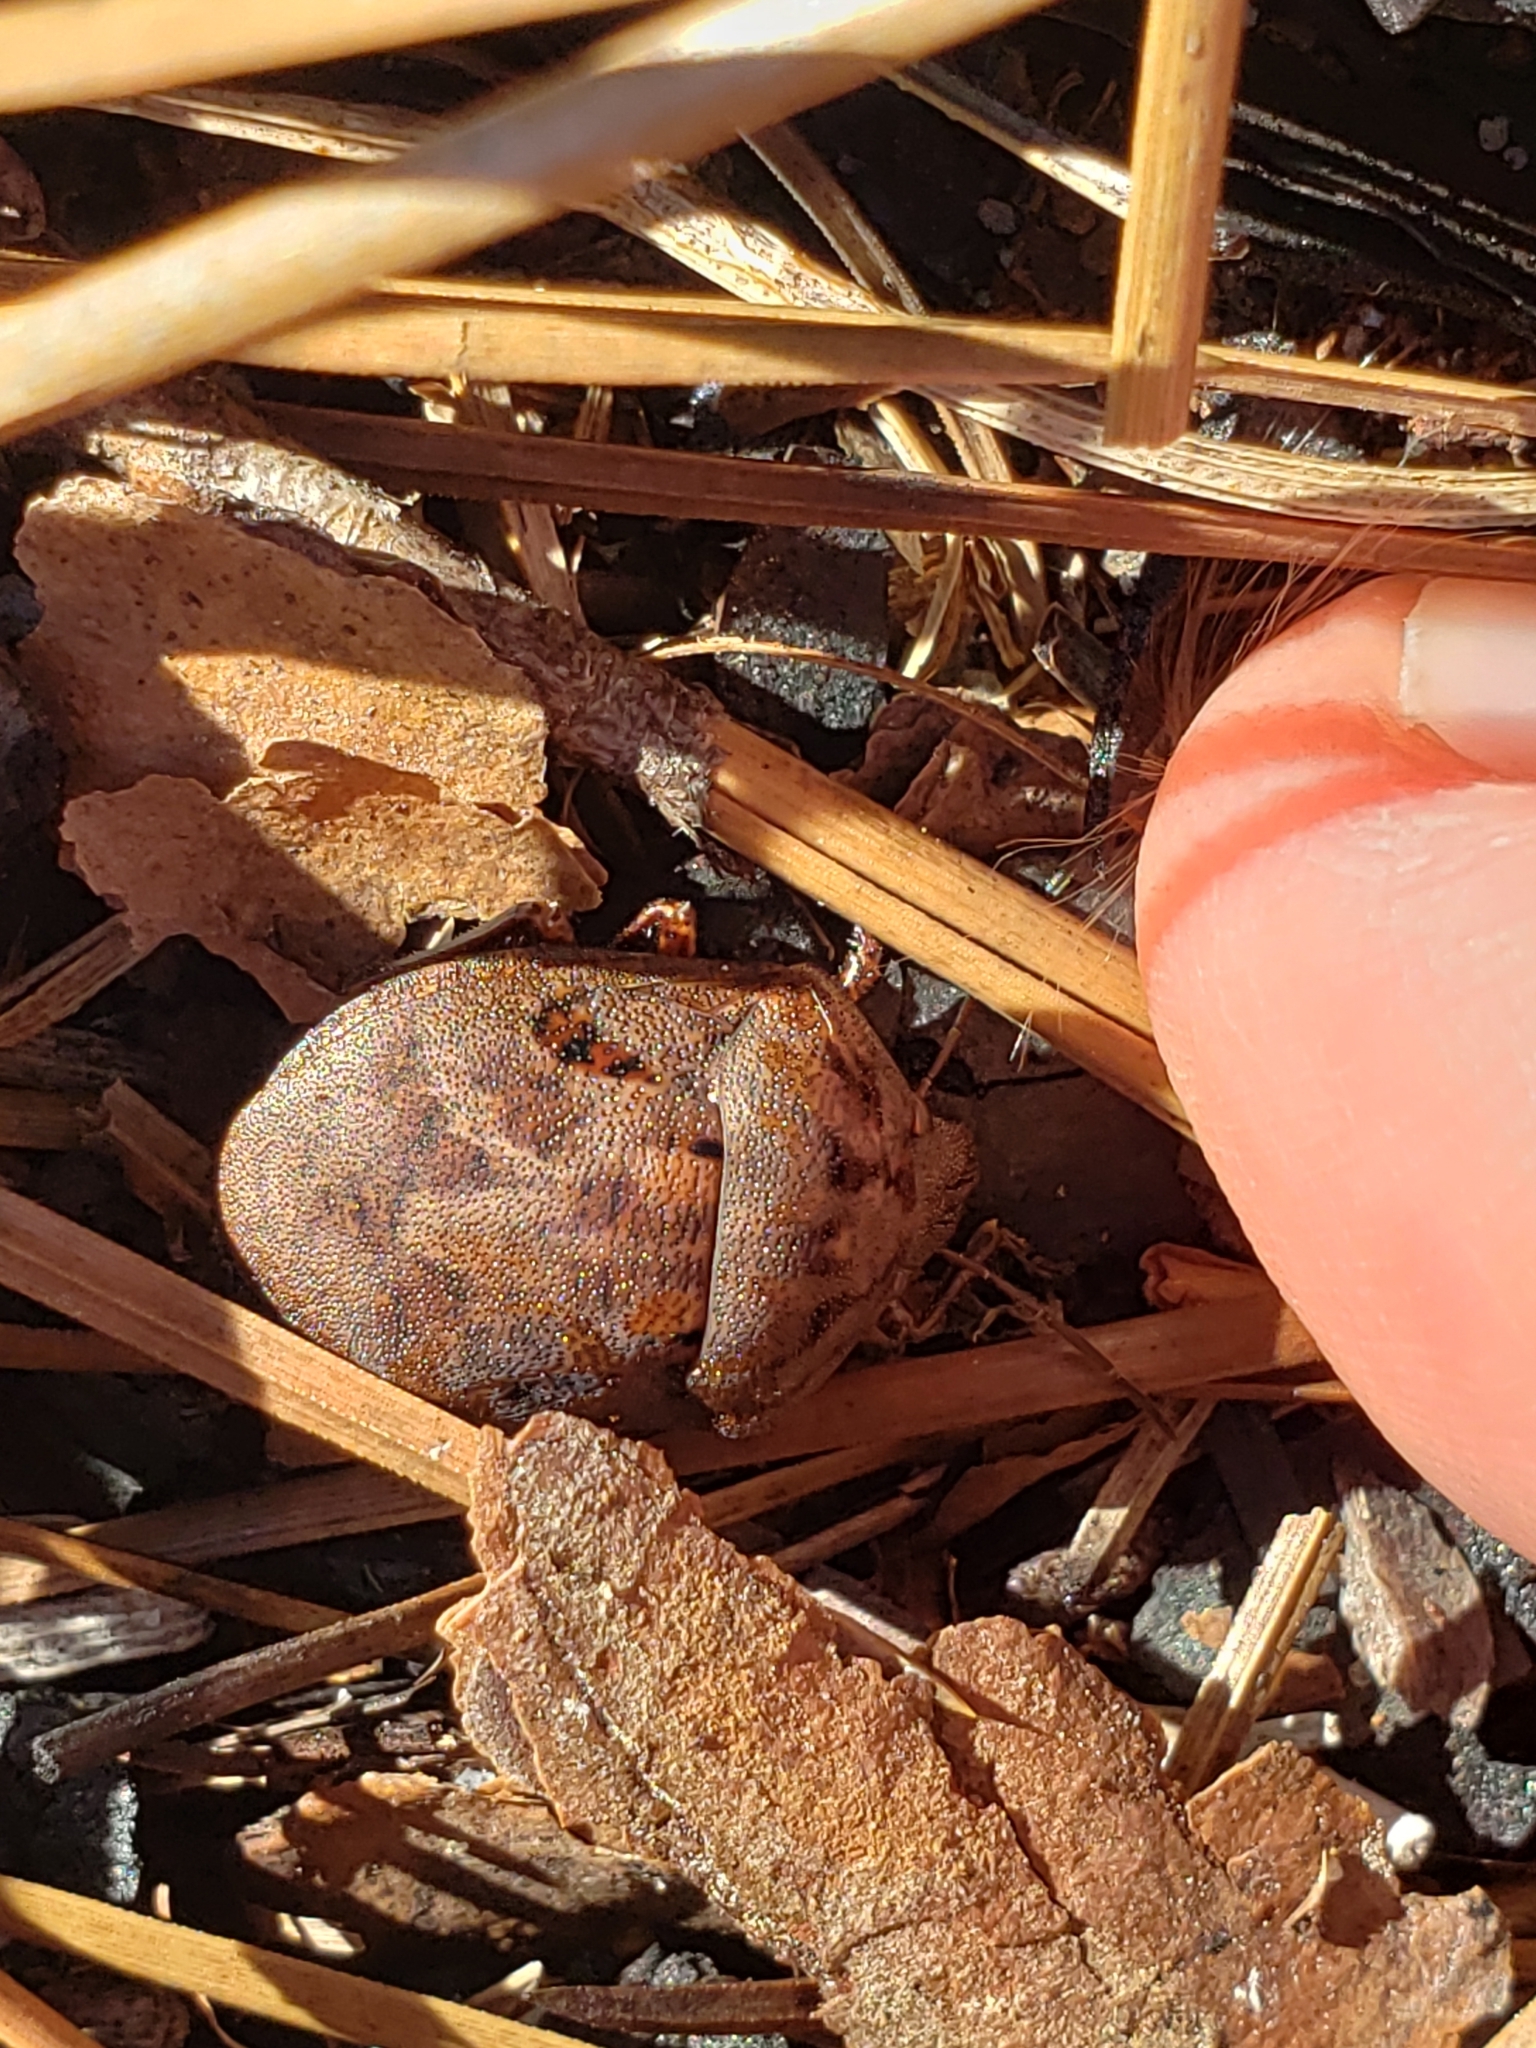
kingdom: Animalia
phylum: Arthropoda
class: Insecta
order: Hemiptera
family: Scutelleridae
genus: Tetyra
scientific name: Tetyra bipunctata
